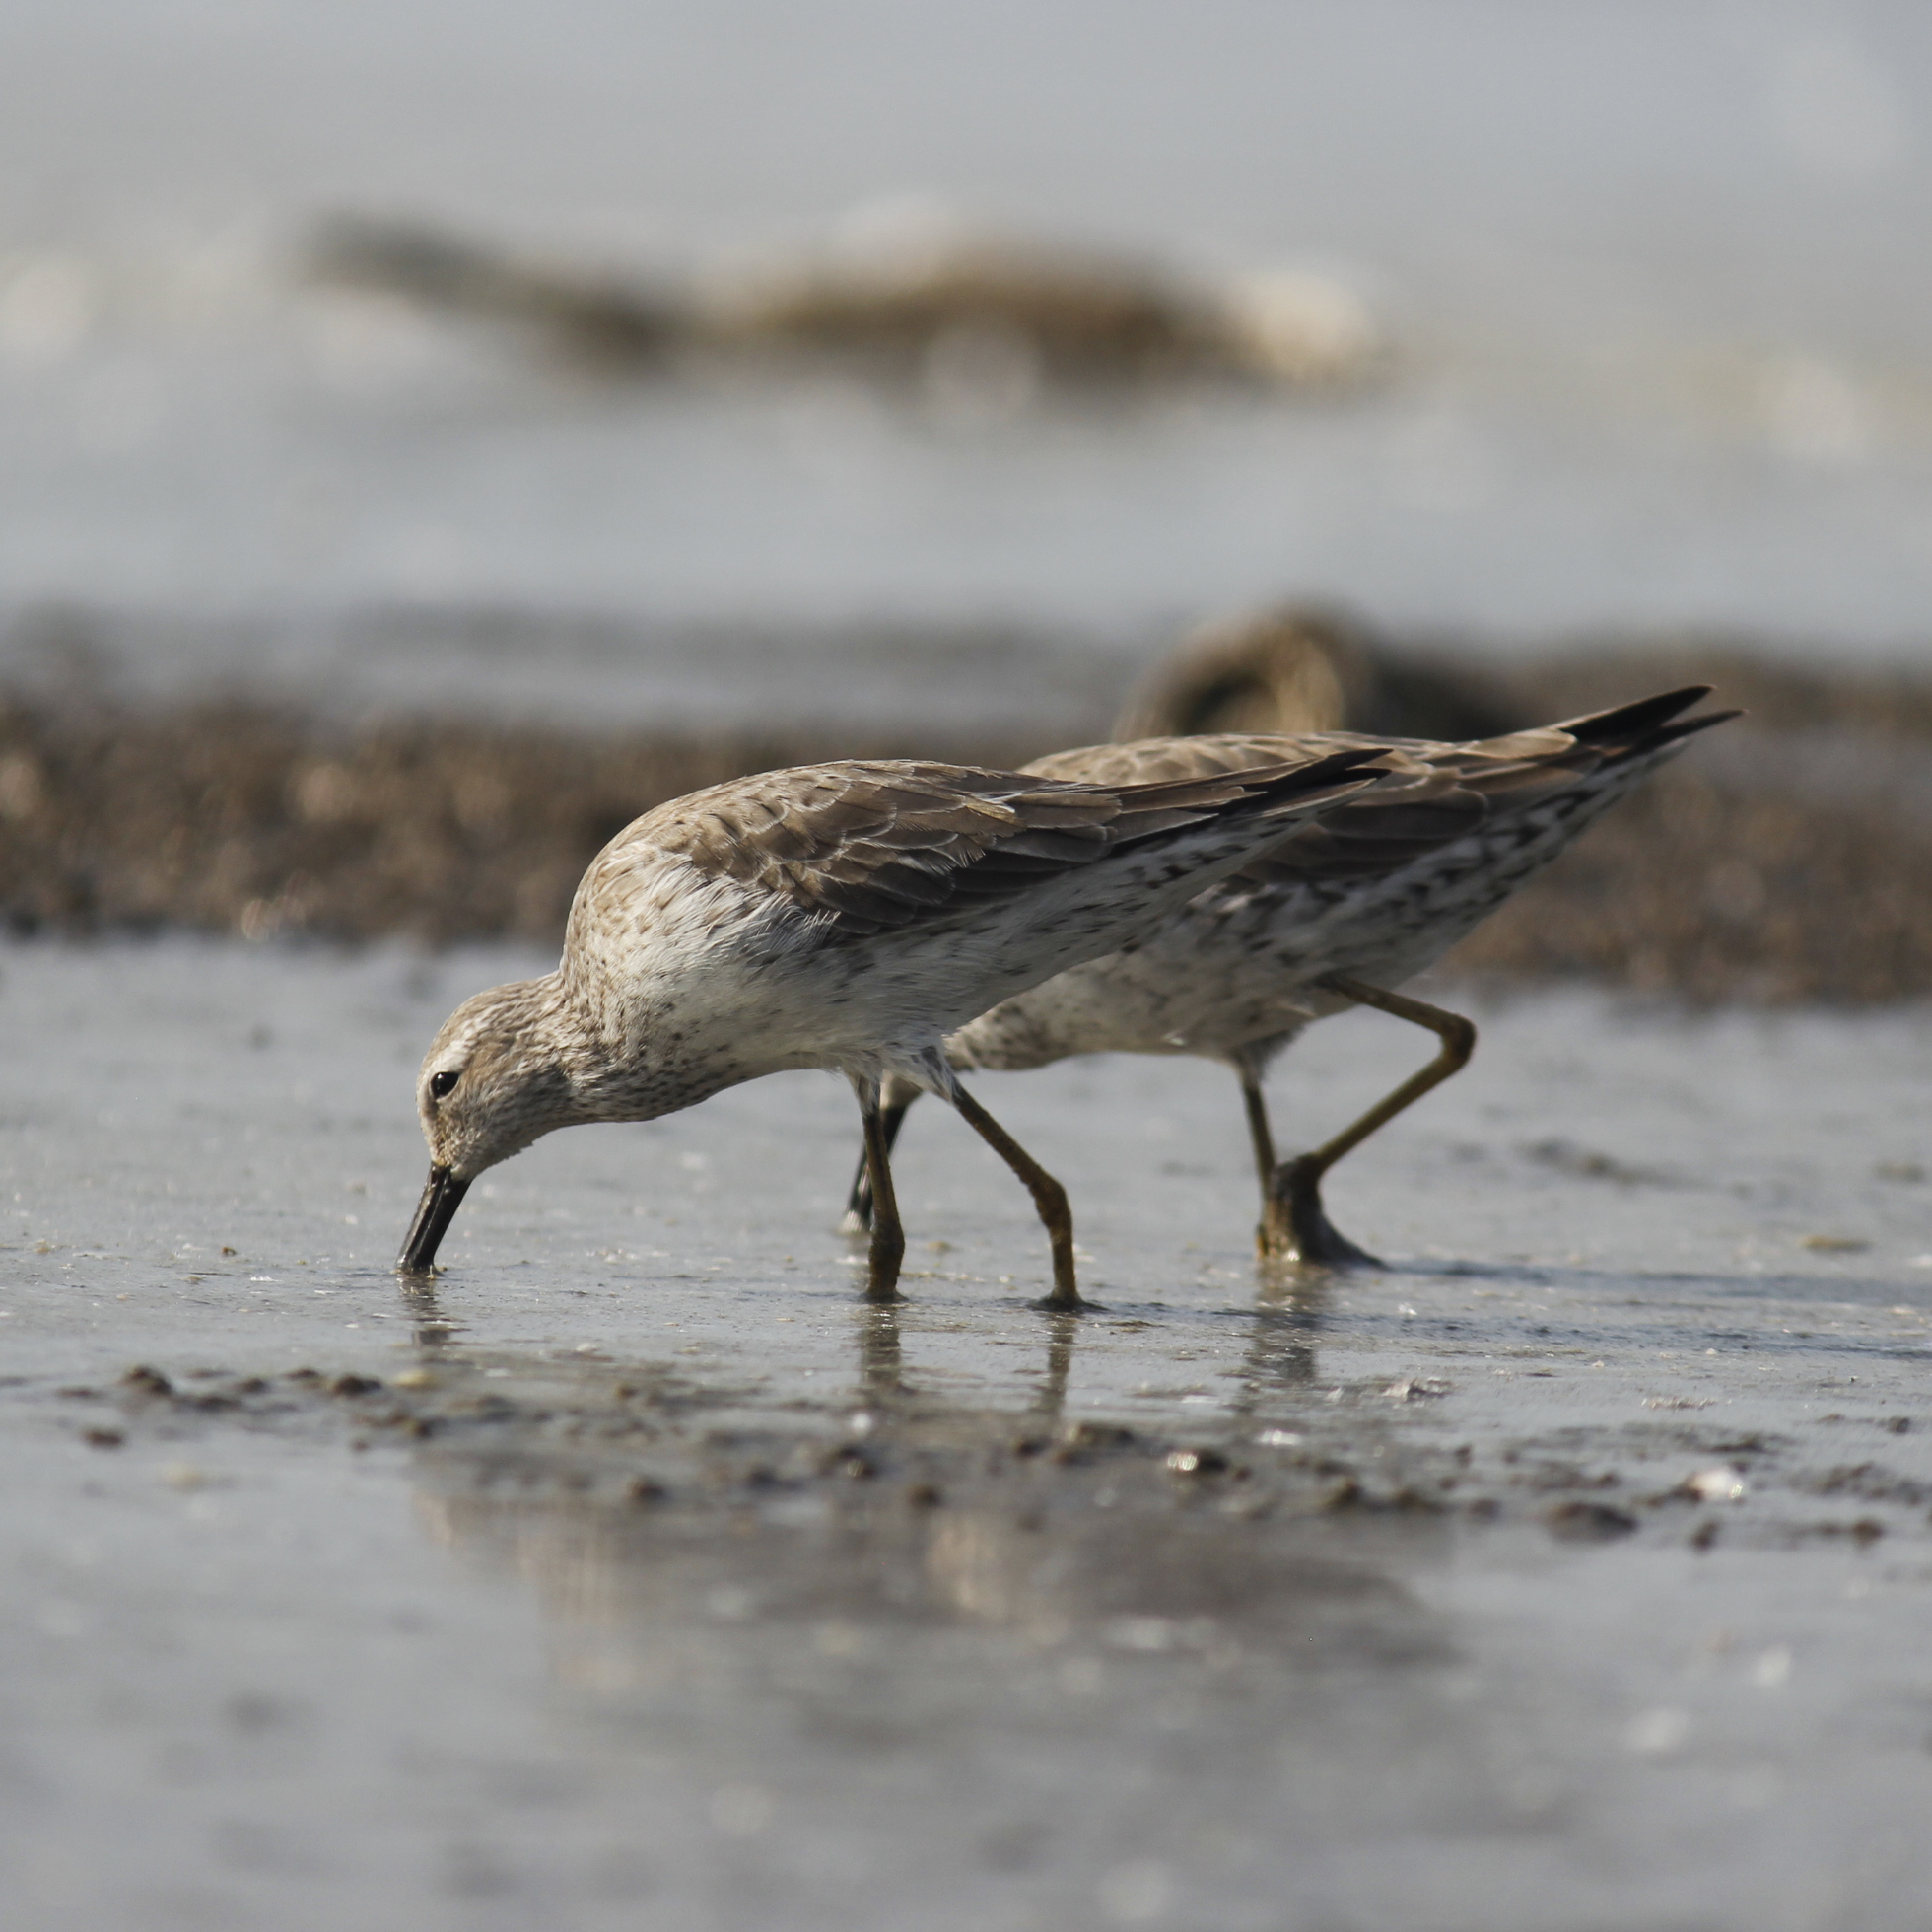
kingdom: Animalia
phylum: Chordata
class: Aves
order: Charadriiformes
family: Scolopacidae
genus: Calidris
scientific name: Calidris himantopus
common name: Stilt sandpiper
